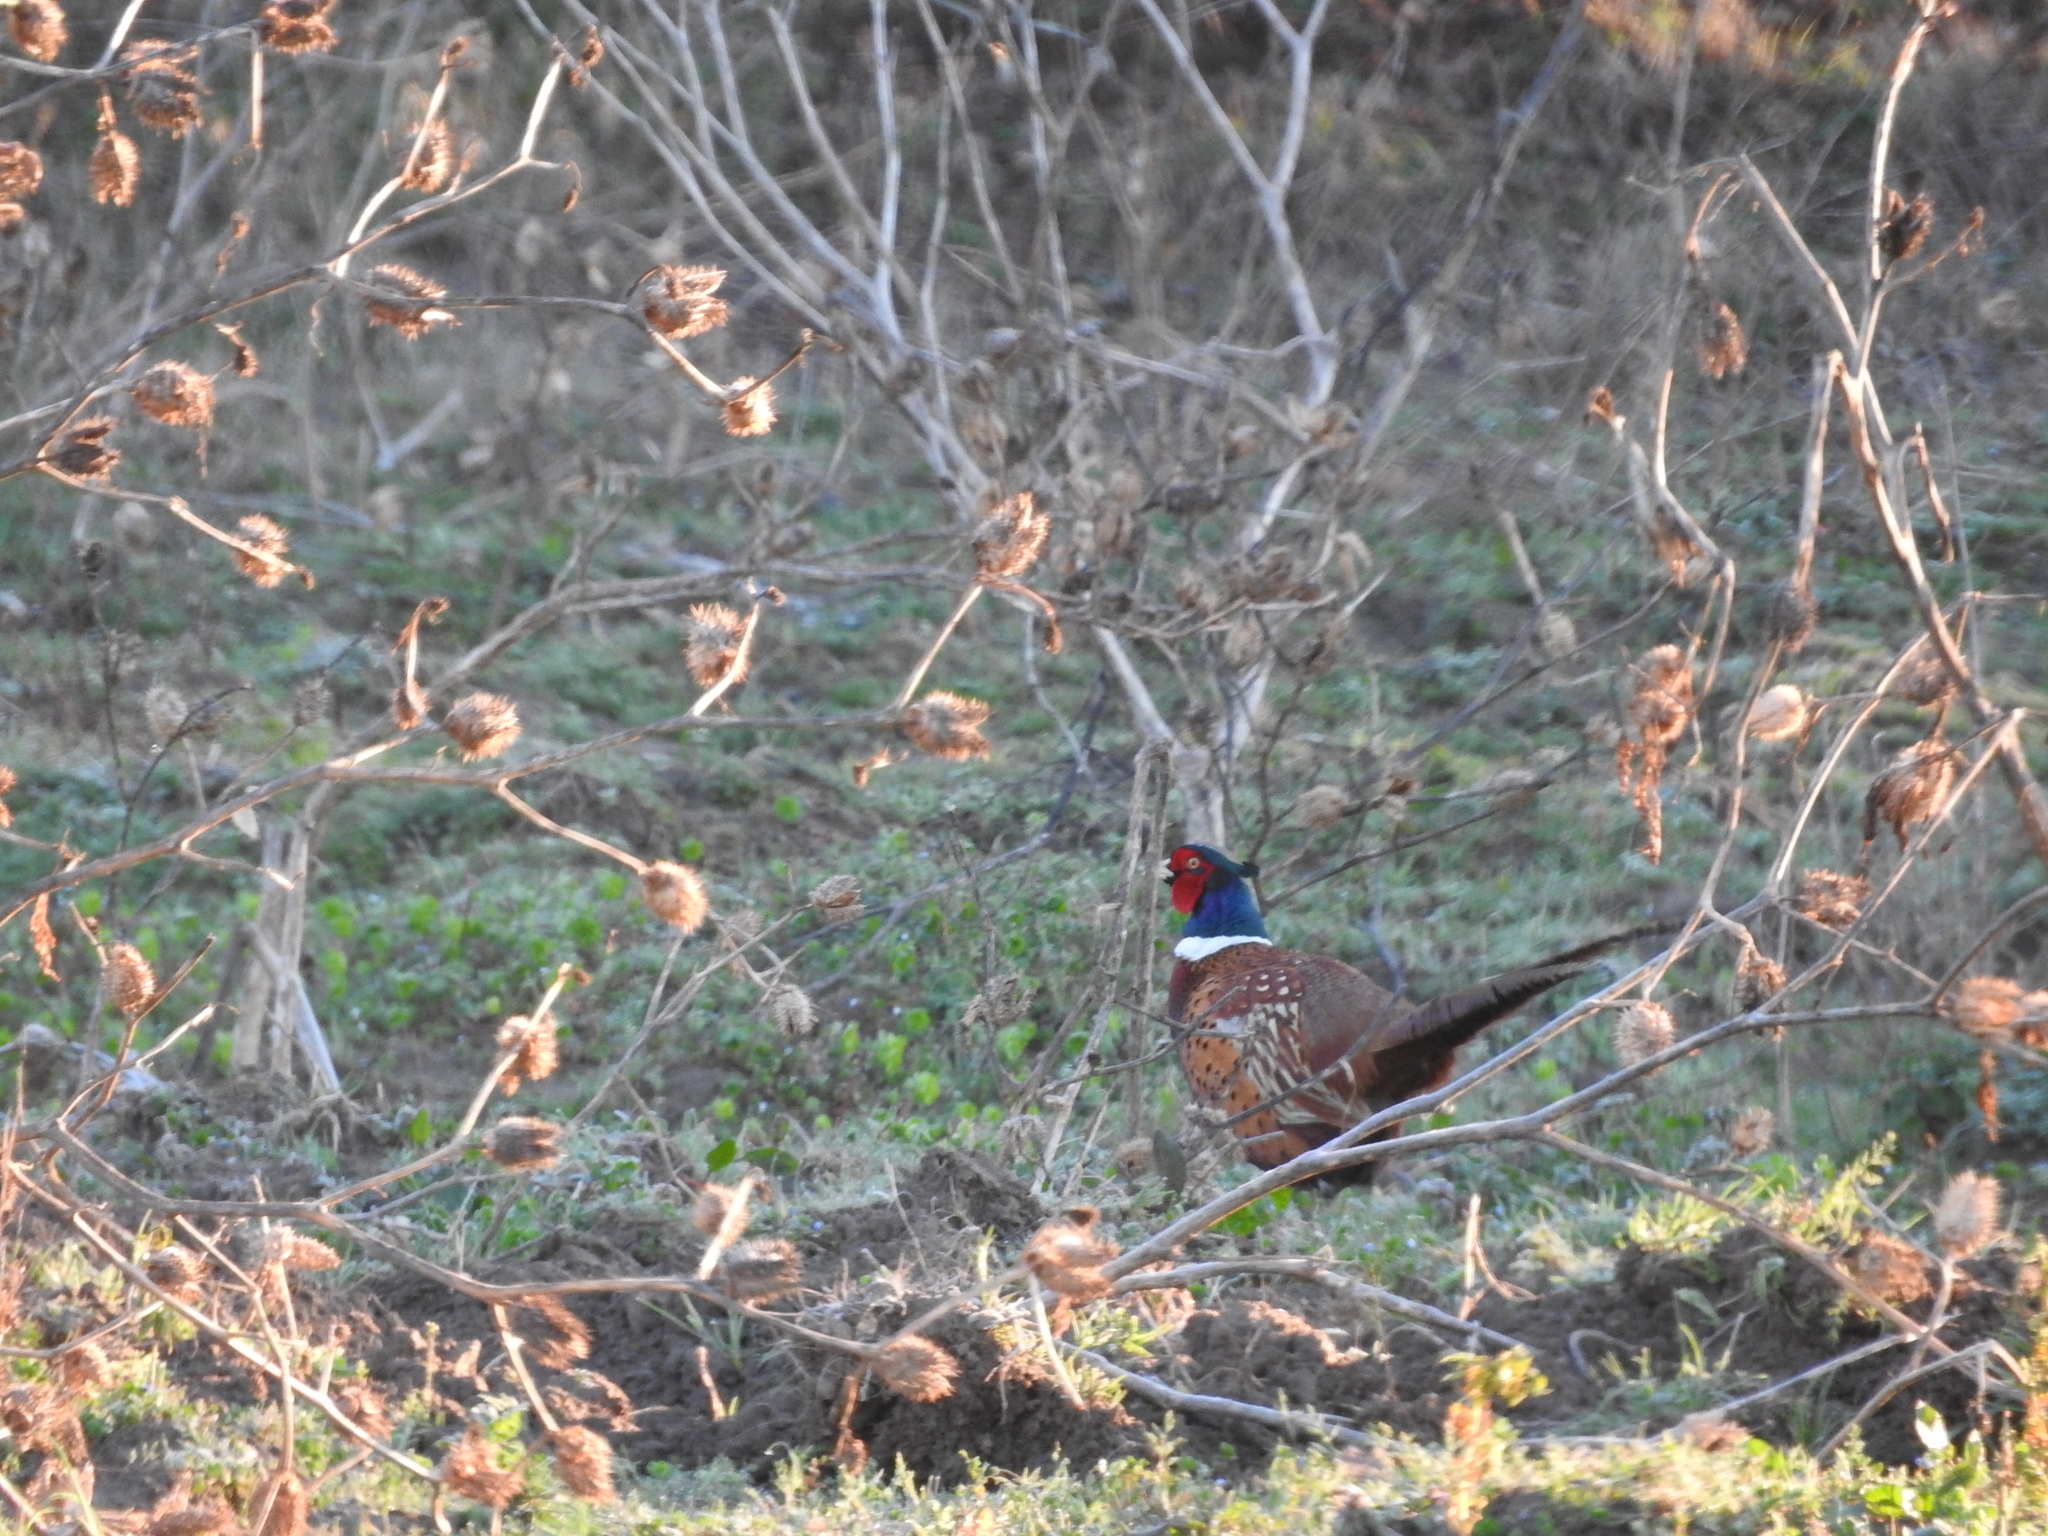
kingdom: Animalia
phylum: Chordata
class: Aves
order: Galliformes
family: Phasianidae
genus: Phasianus
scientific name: Phasianus colchicus
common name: Common pheasant
